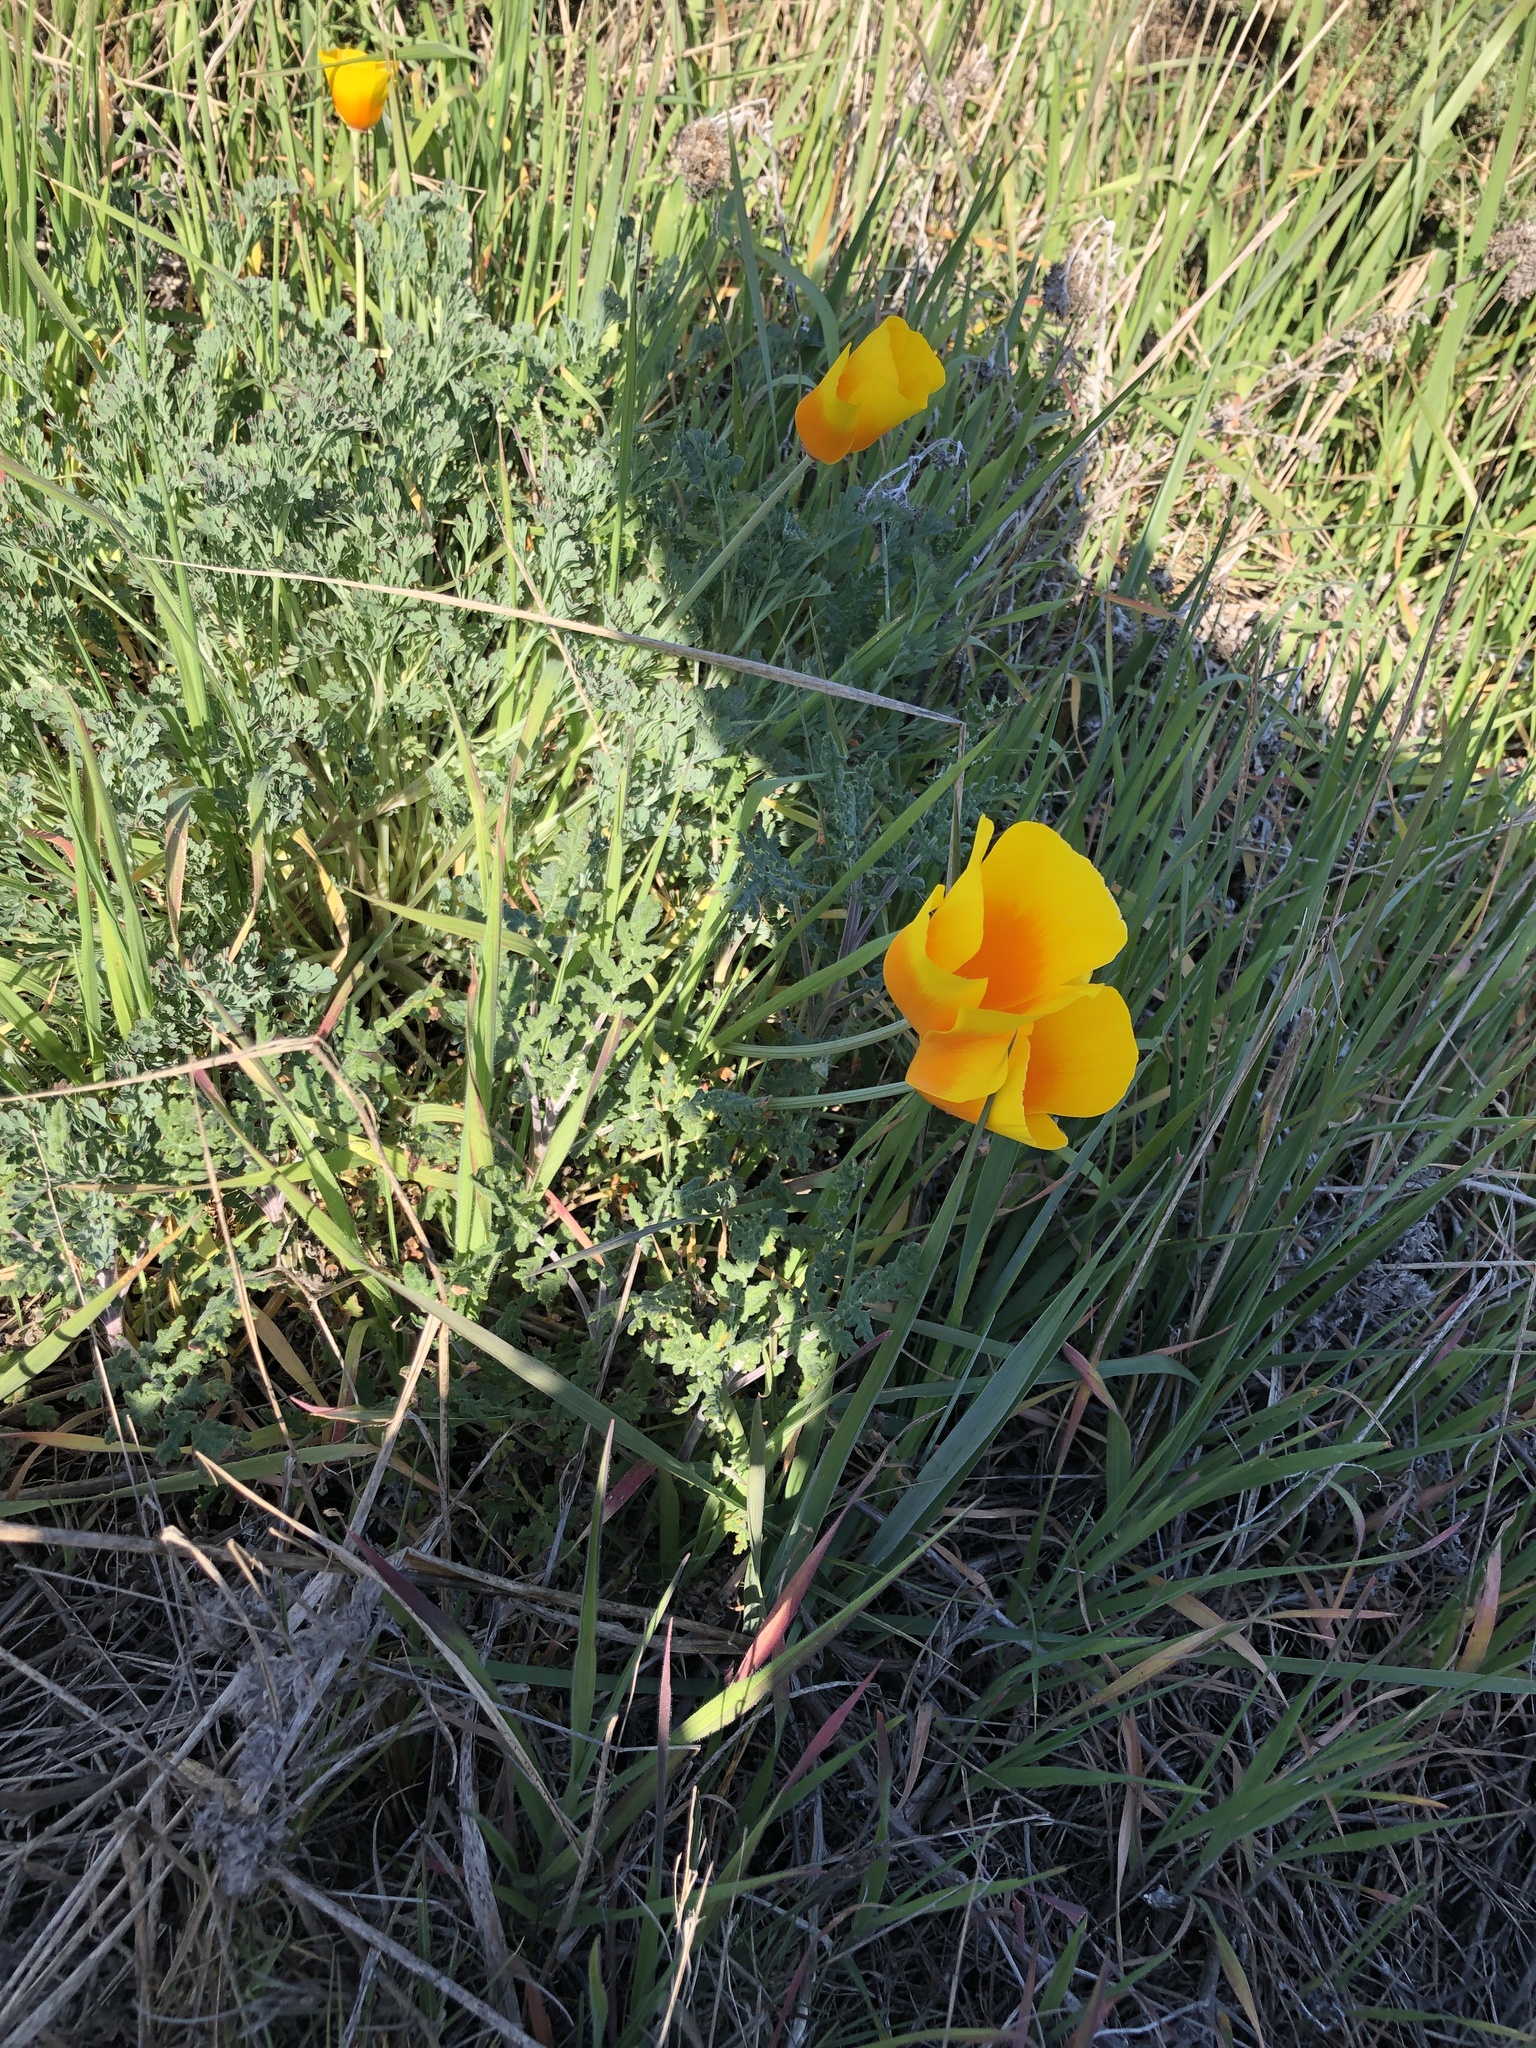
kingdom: Plantae
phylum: Tracheophyta
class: Magnoliopsida
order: Ranunculales
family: Papaveraceae
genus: Eschscholzia
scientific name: Eschscholzia californica
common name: California poppy
